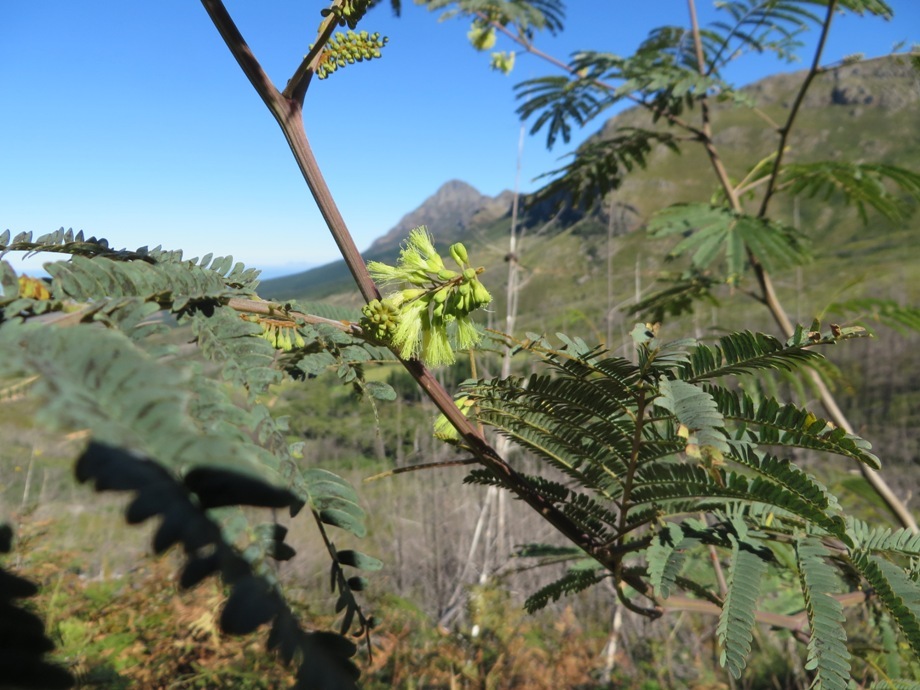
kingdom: Plantae
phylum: Tracheophyta
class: Magnoliopsida
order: Fabales
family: Fabaceae
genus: Paraserianthes
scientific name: Paraserianthes lophantha
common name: Plume albizia
